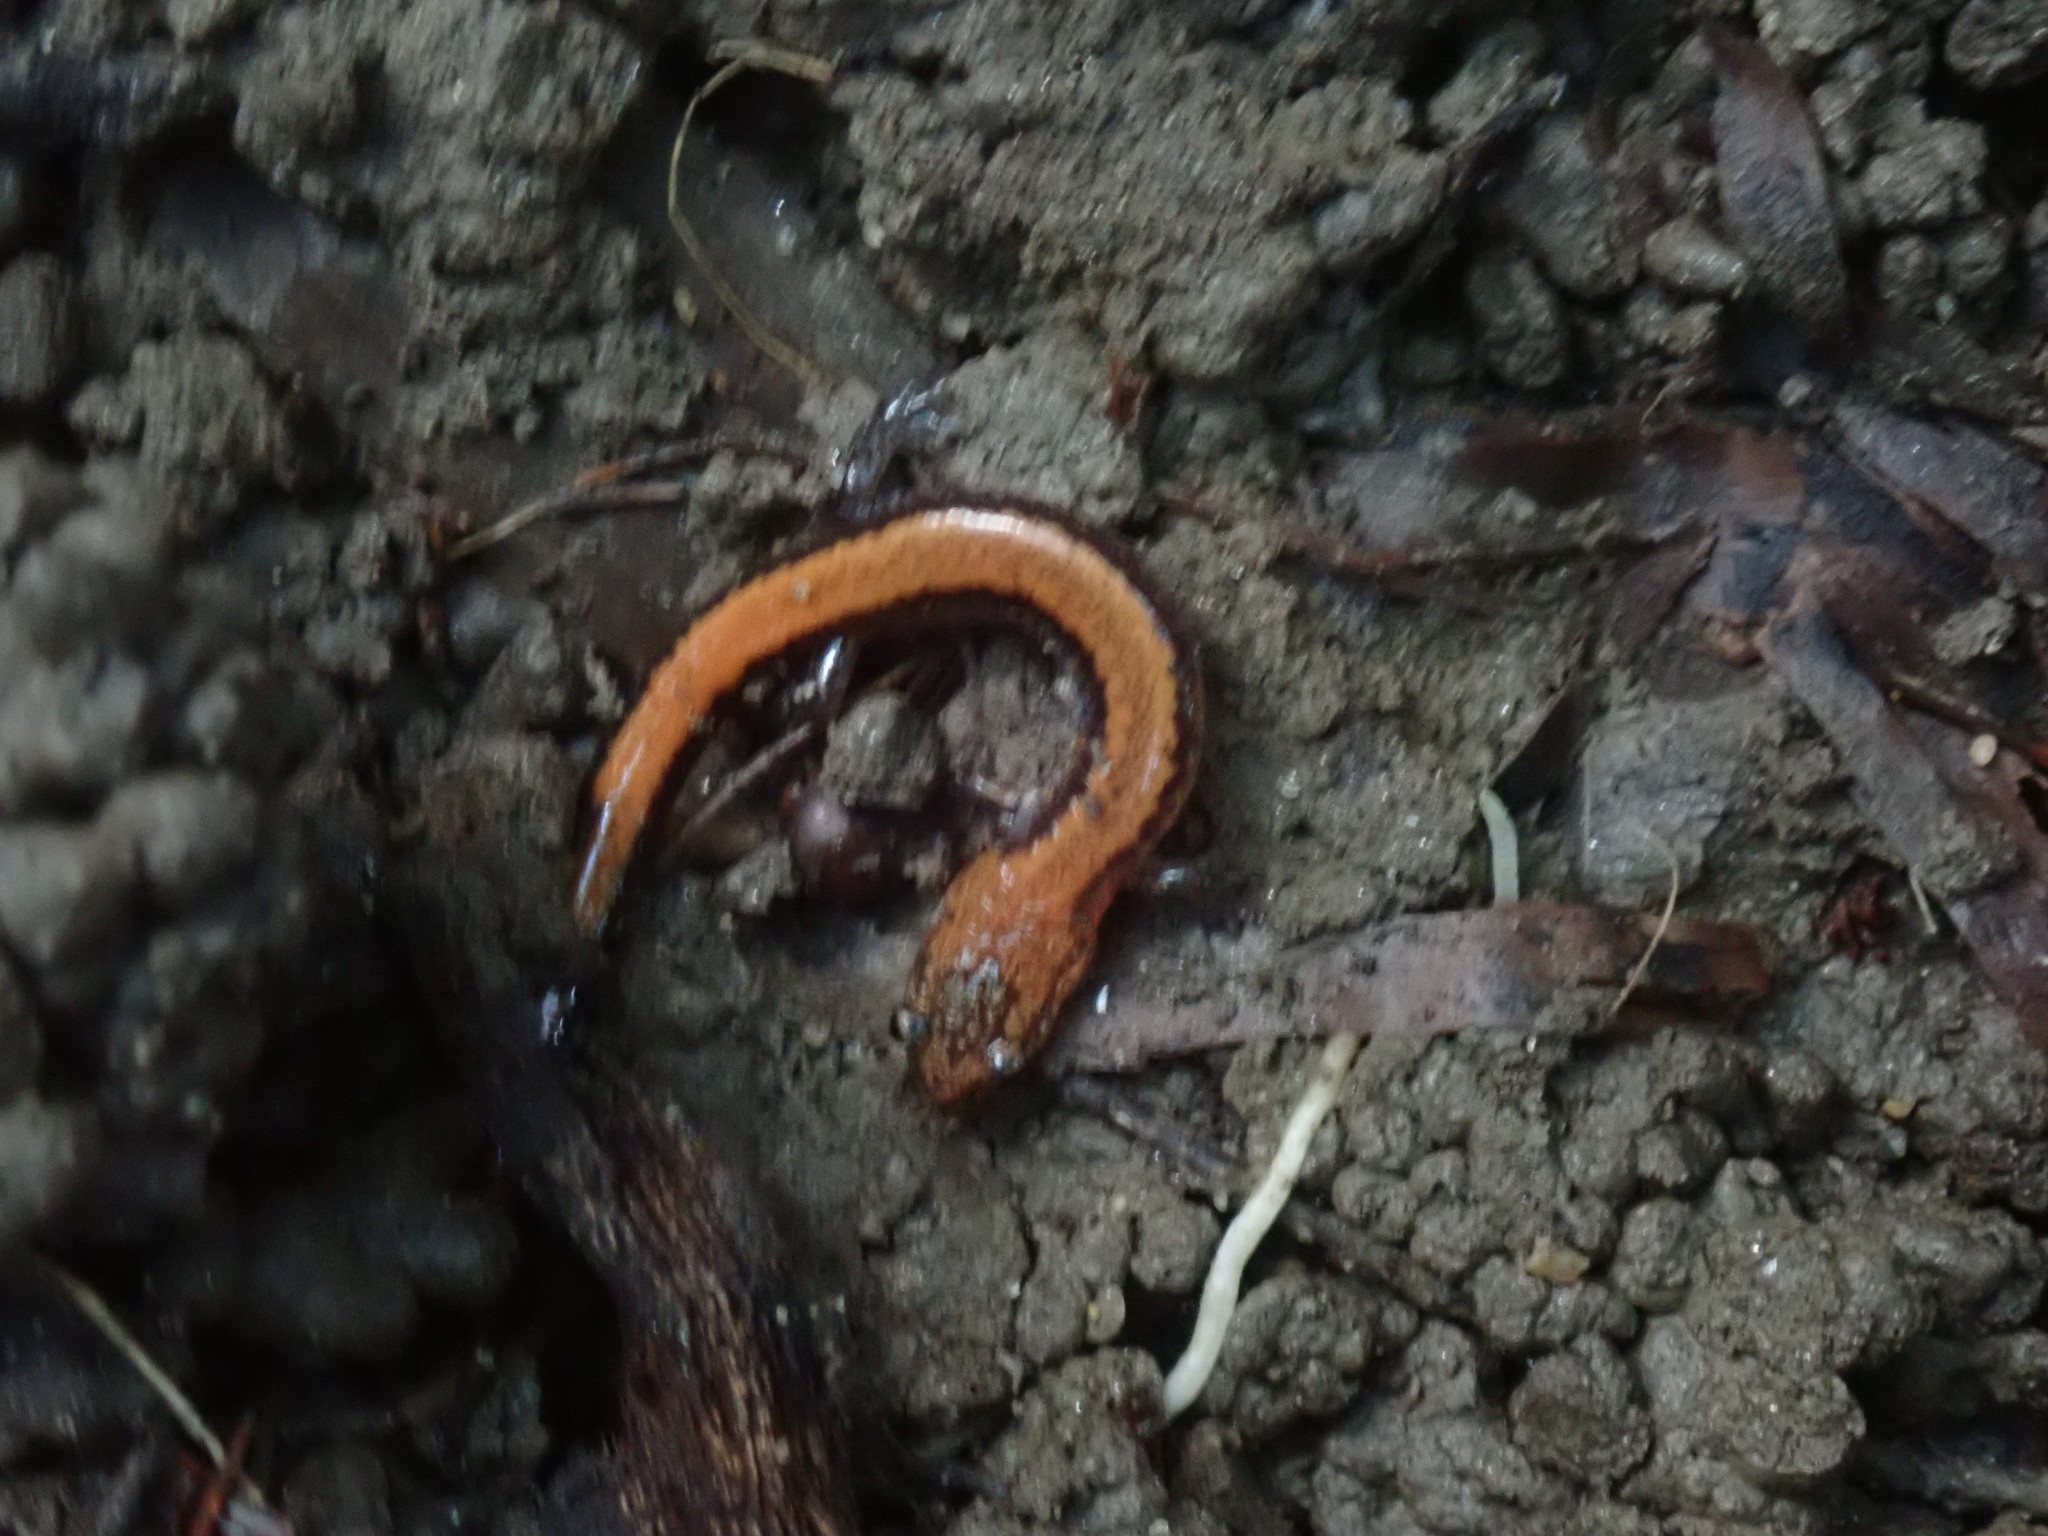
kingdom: Animalia
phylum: Chordata
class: Amphibia
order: Caudata
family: Plethodontidae
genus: Plethodon
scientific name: Plethodon cinereus
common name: Redback salamander
